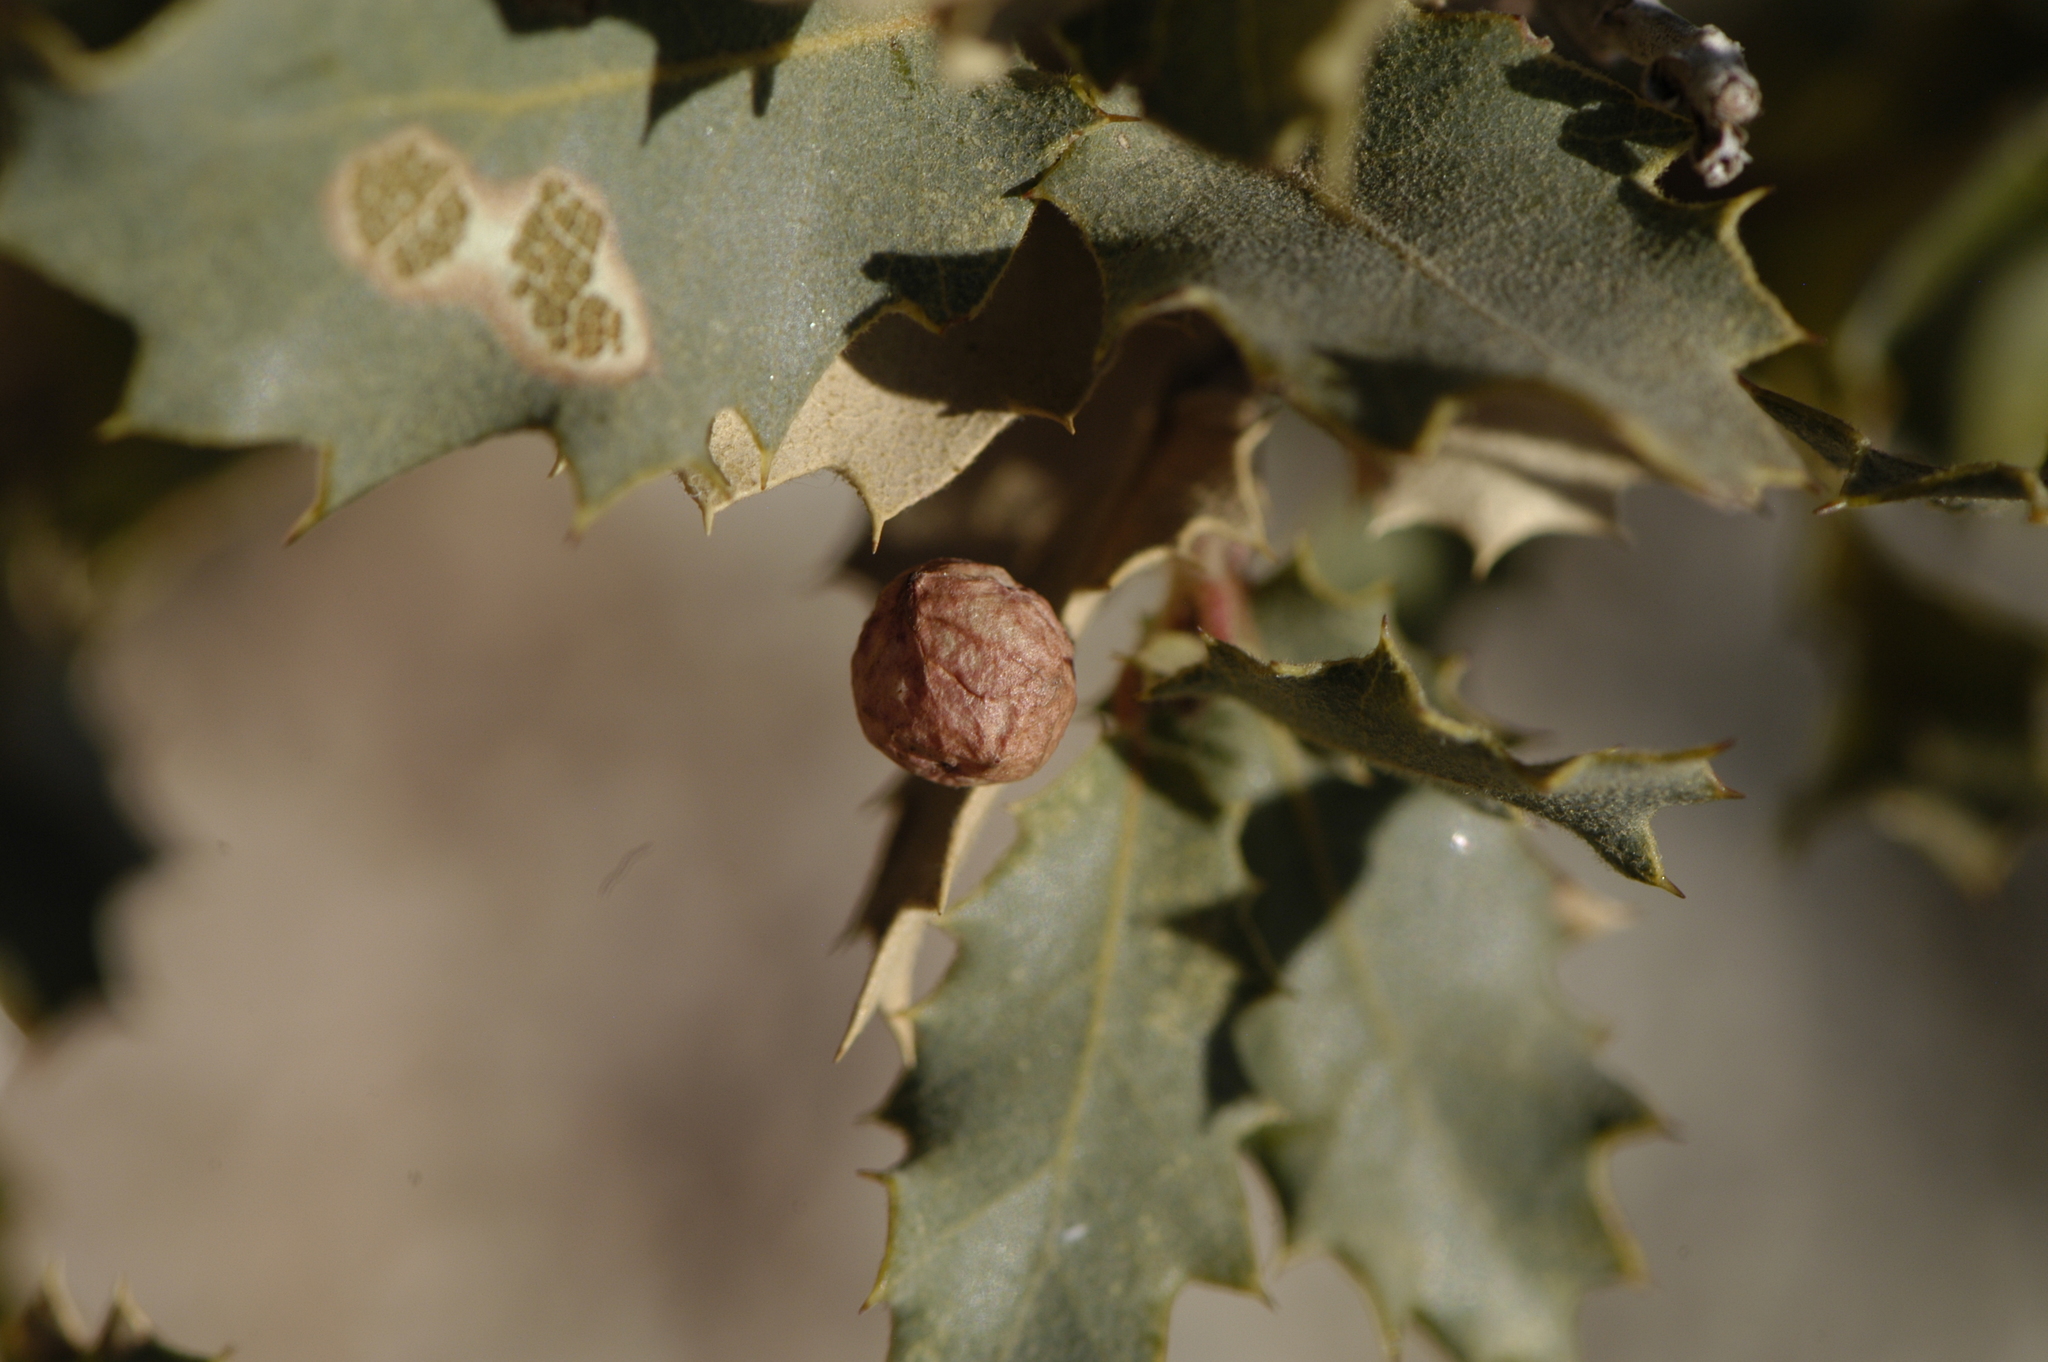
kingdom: Animalia
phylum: Arthropoda
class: Insecta
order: Hymenoptera
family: Cynipidae
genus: Atrusca
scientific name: Atrusca
